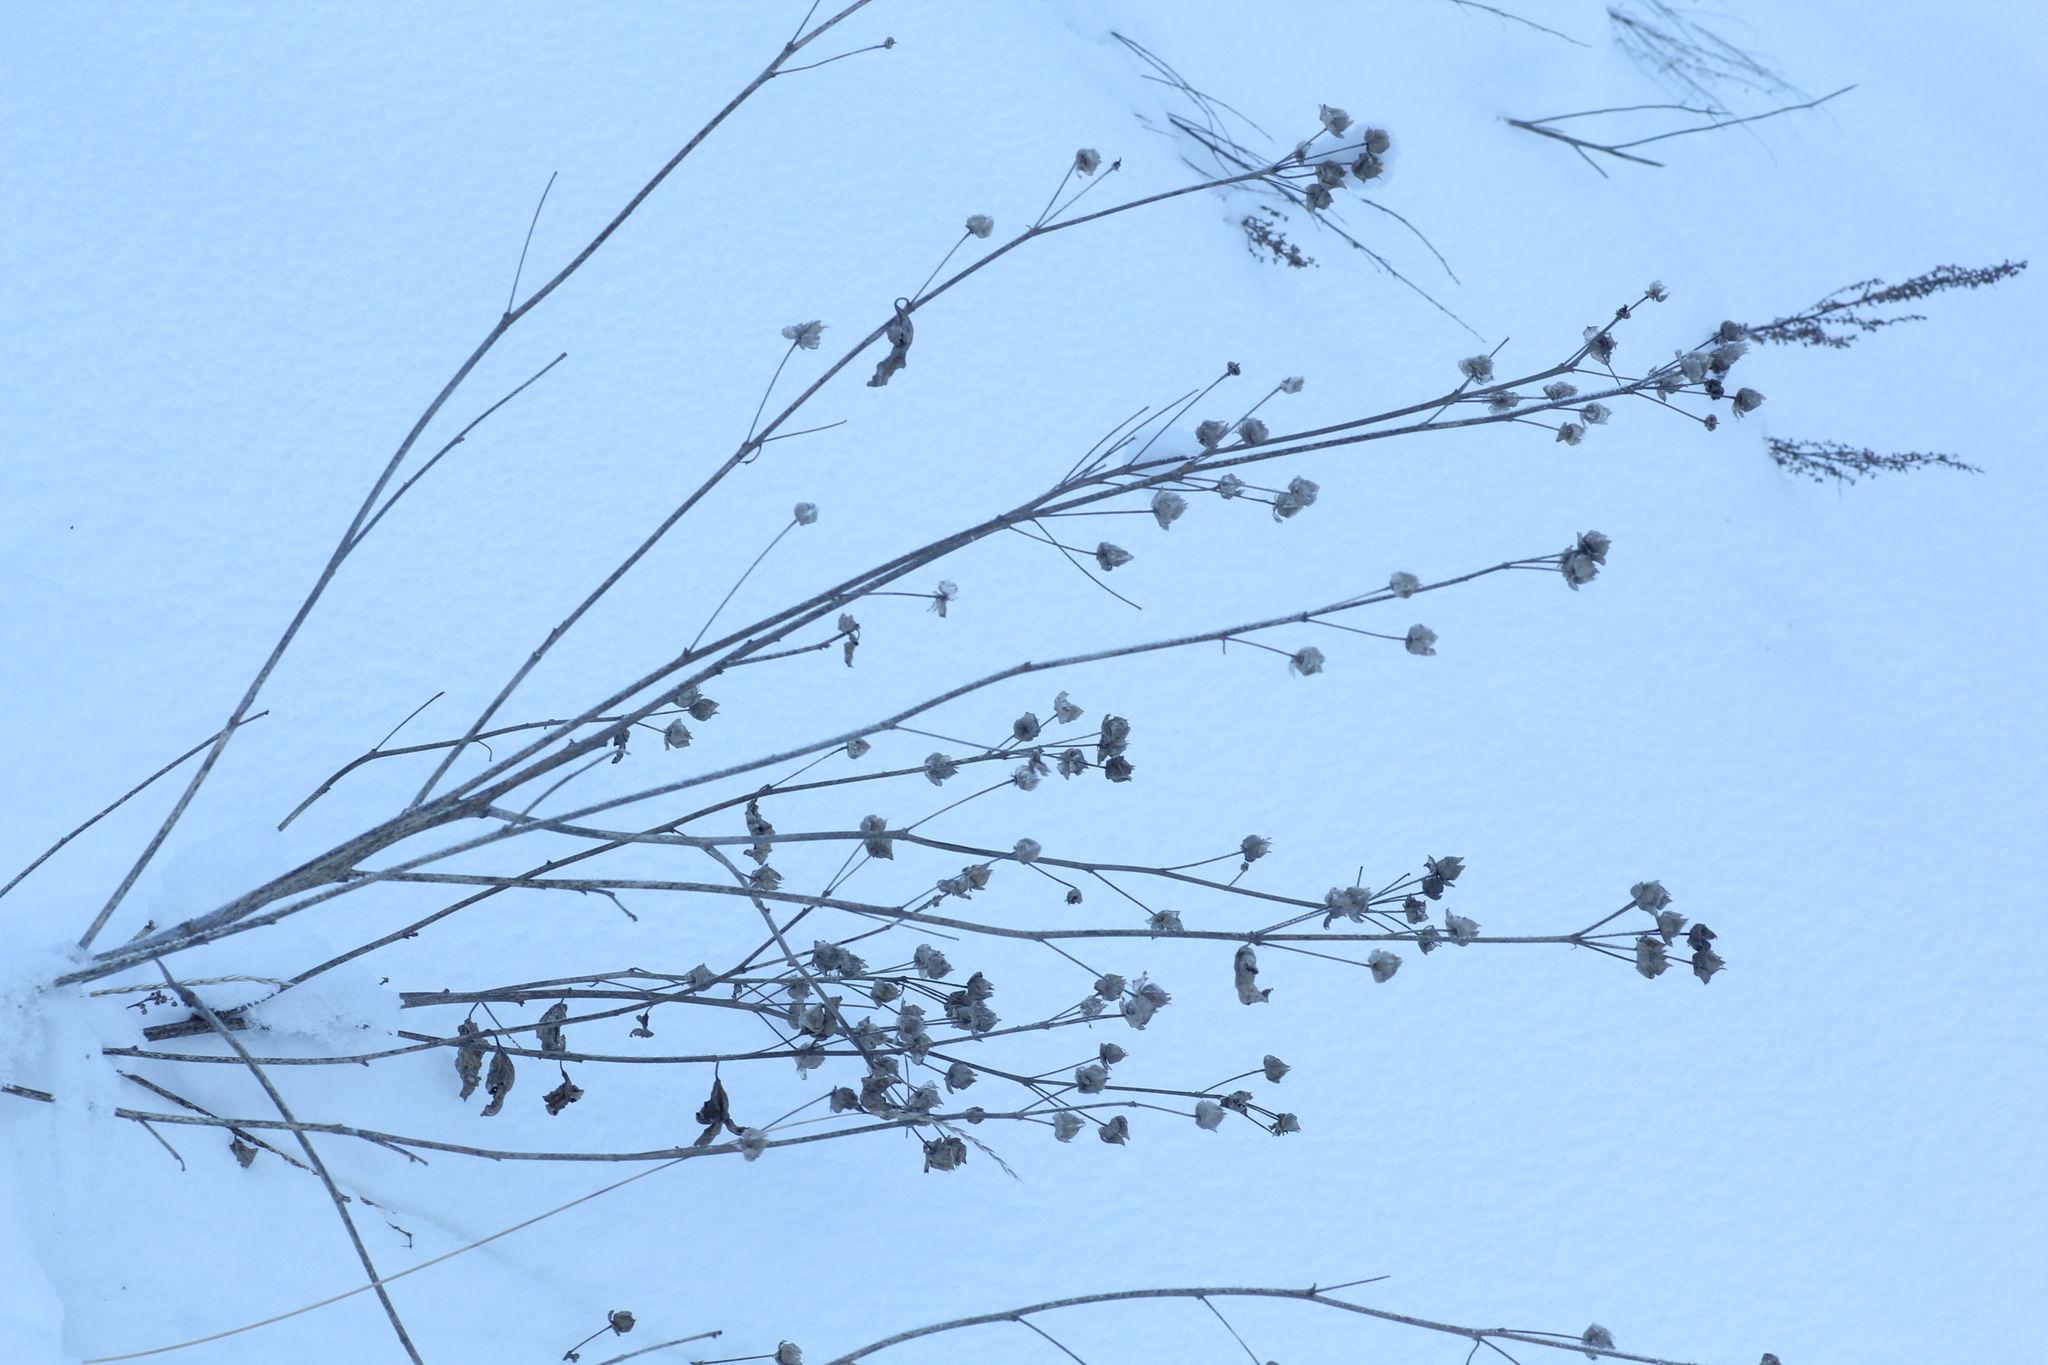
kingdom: Plantae
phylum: Tracheophyta
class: Magnoliopsida
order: Malvales
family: Malvaceae
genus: Malva
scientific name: Malva thuringiaca
